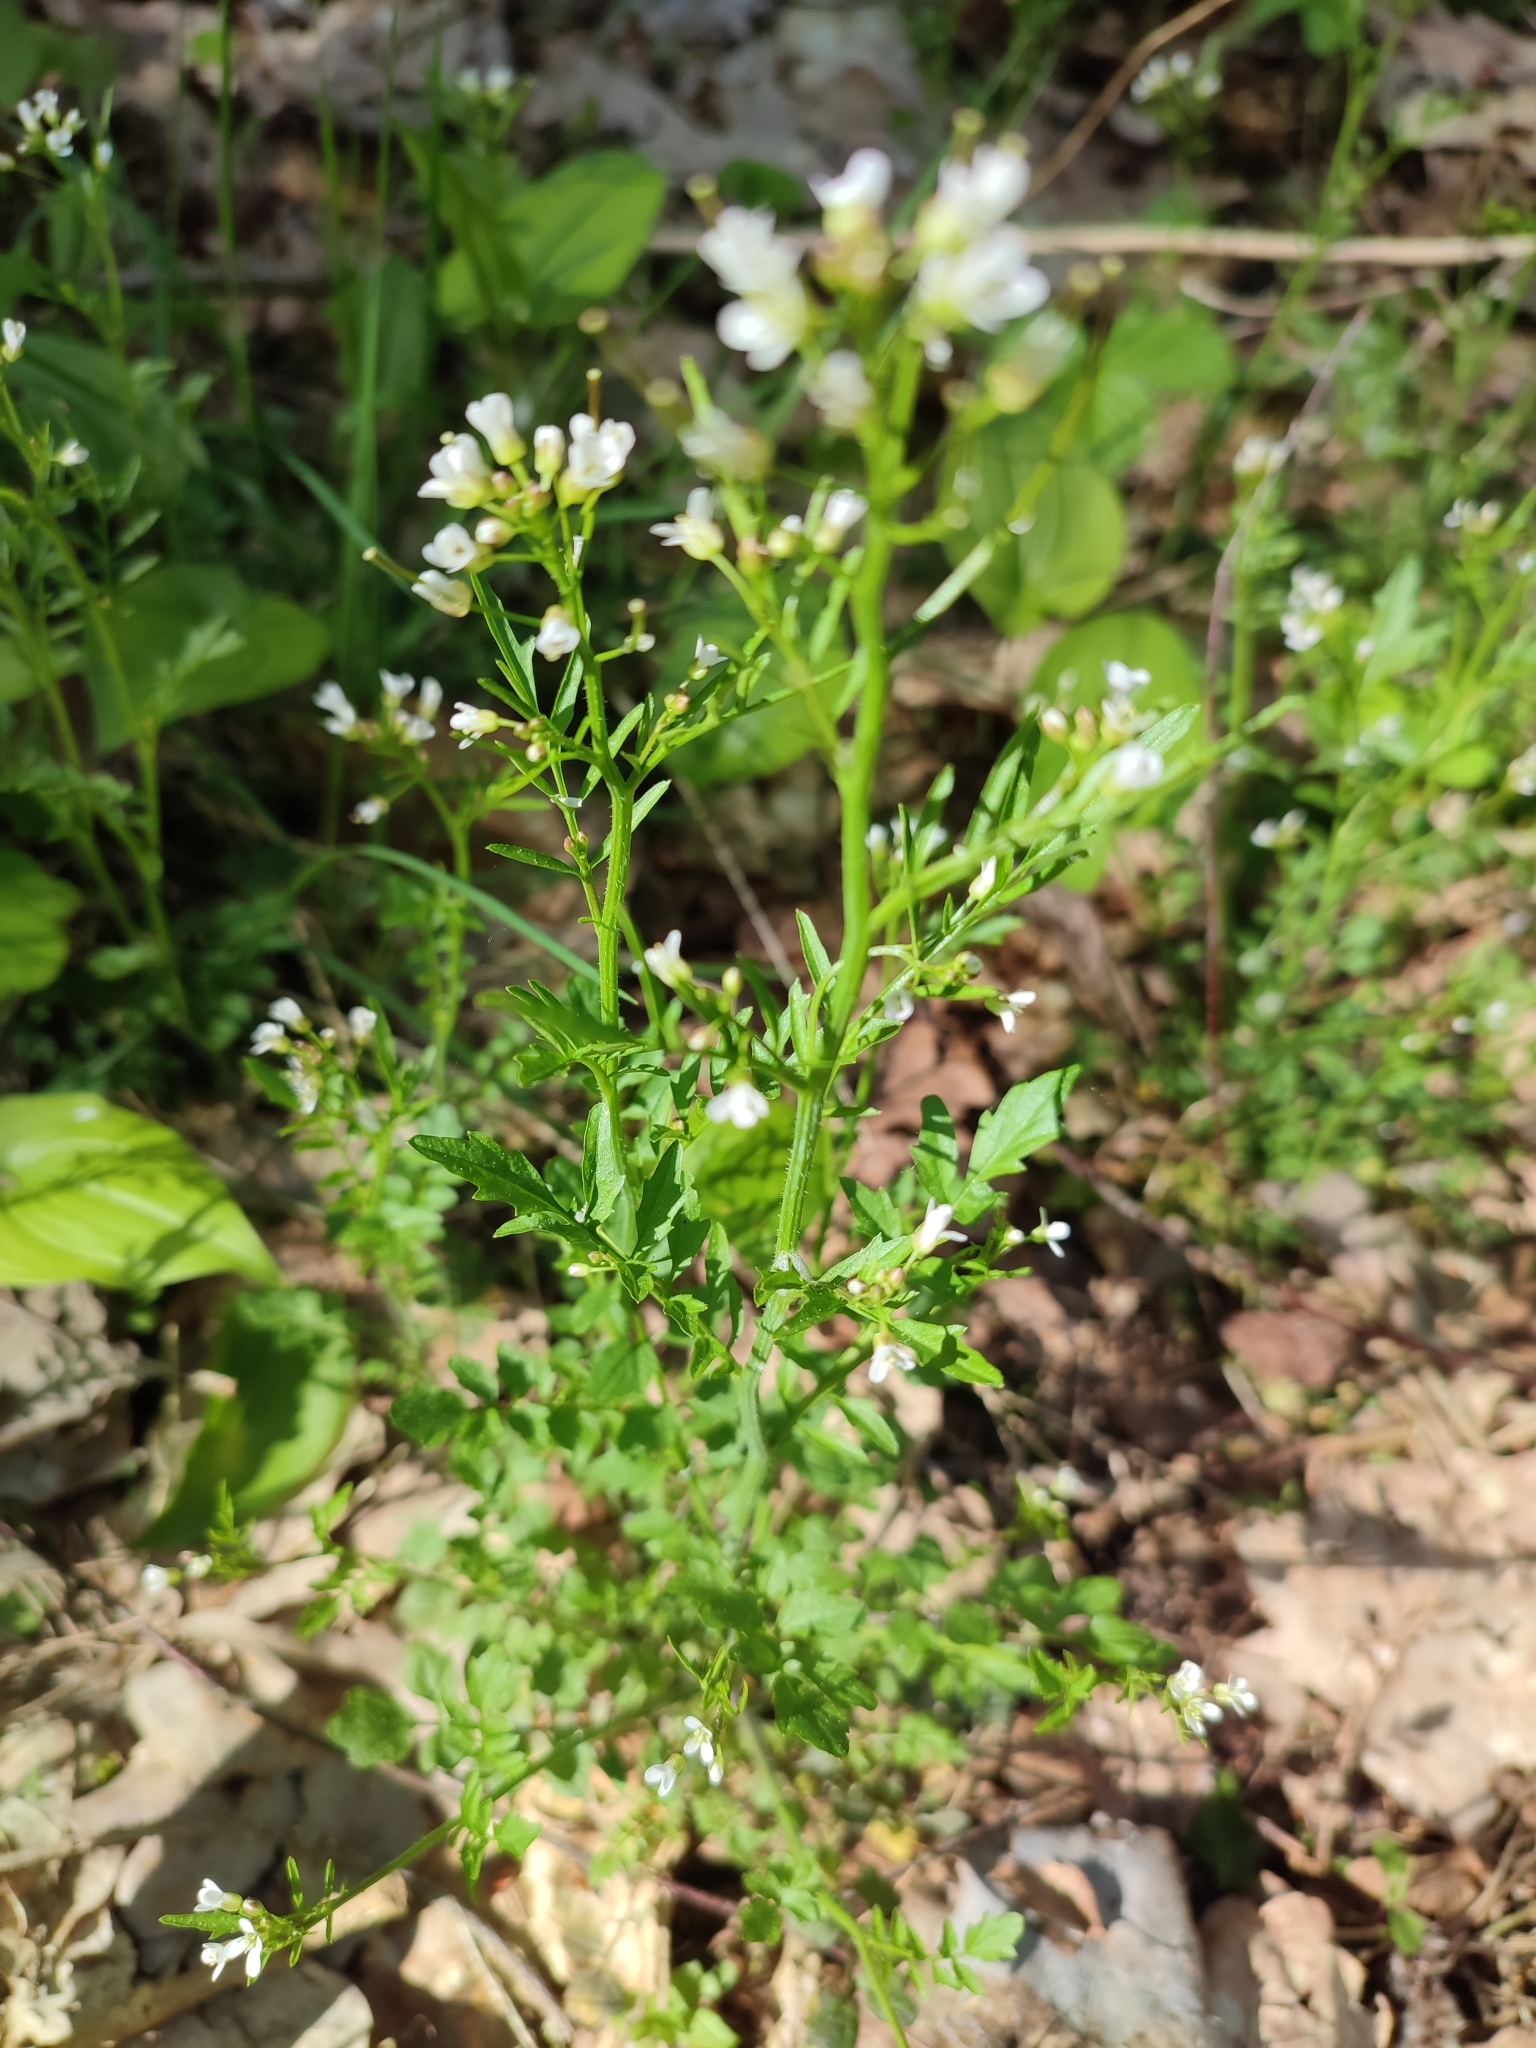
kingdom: Plantae
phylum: Tracheophyta
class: Magnoliopsida
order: Brassicales
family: Brassicaceae
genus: Cardamine
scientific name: Cardamine flexuosa
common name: Woodland bittercress
